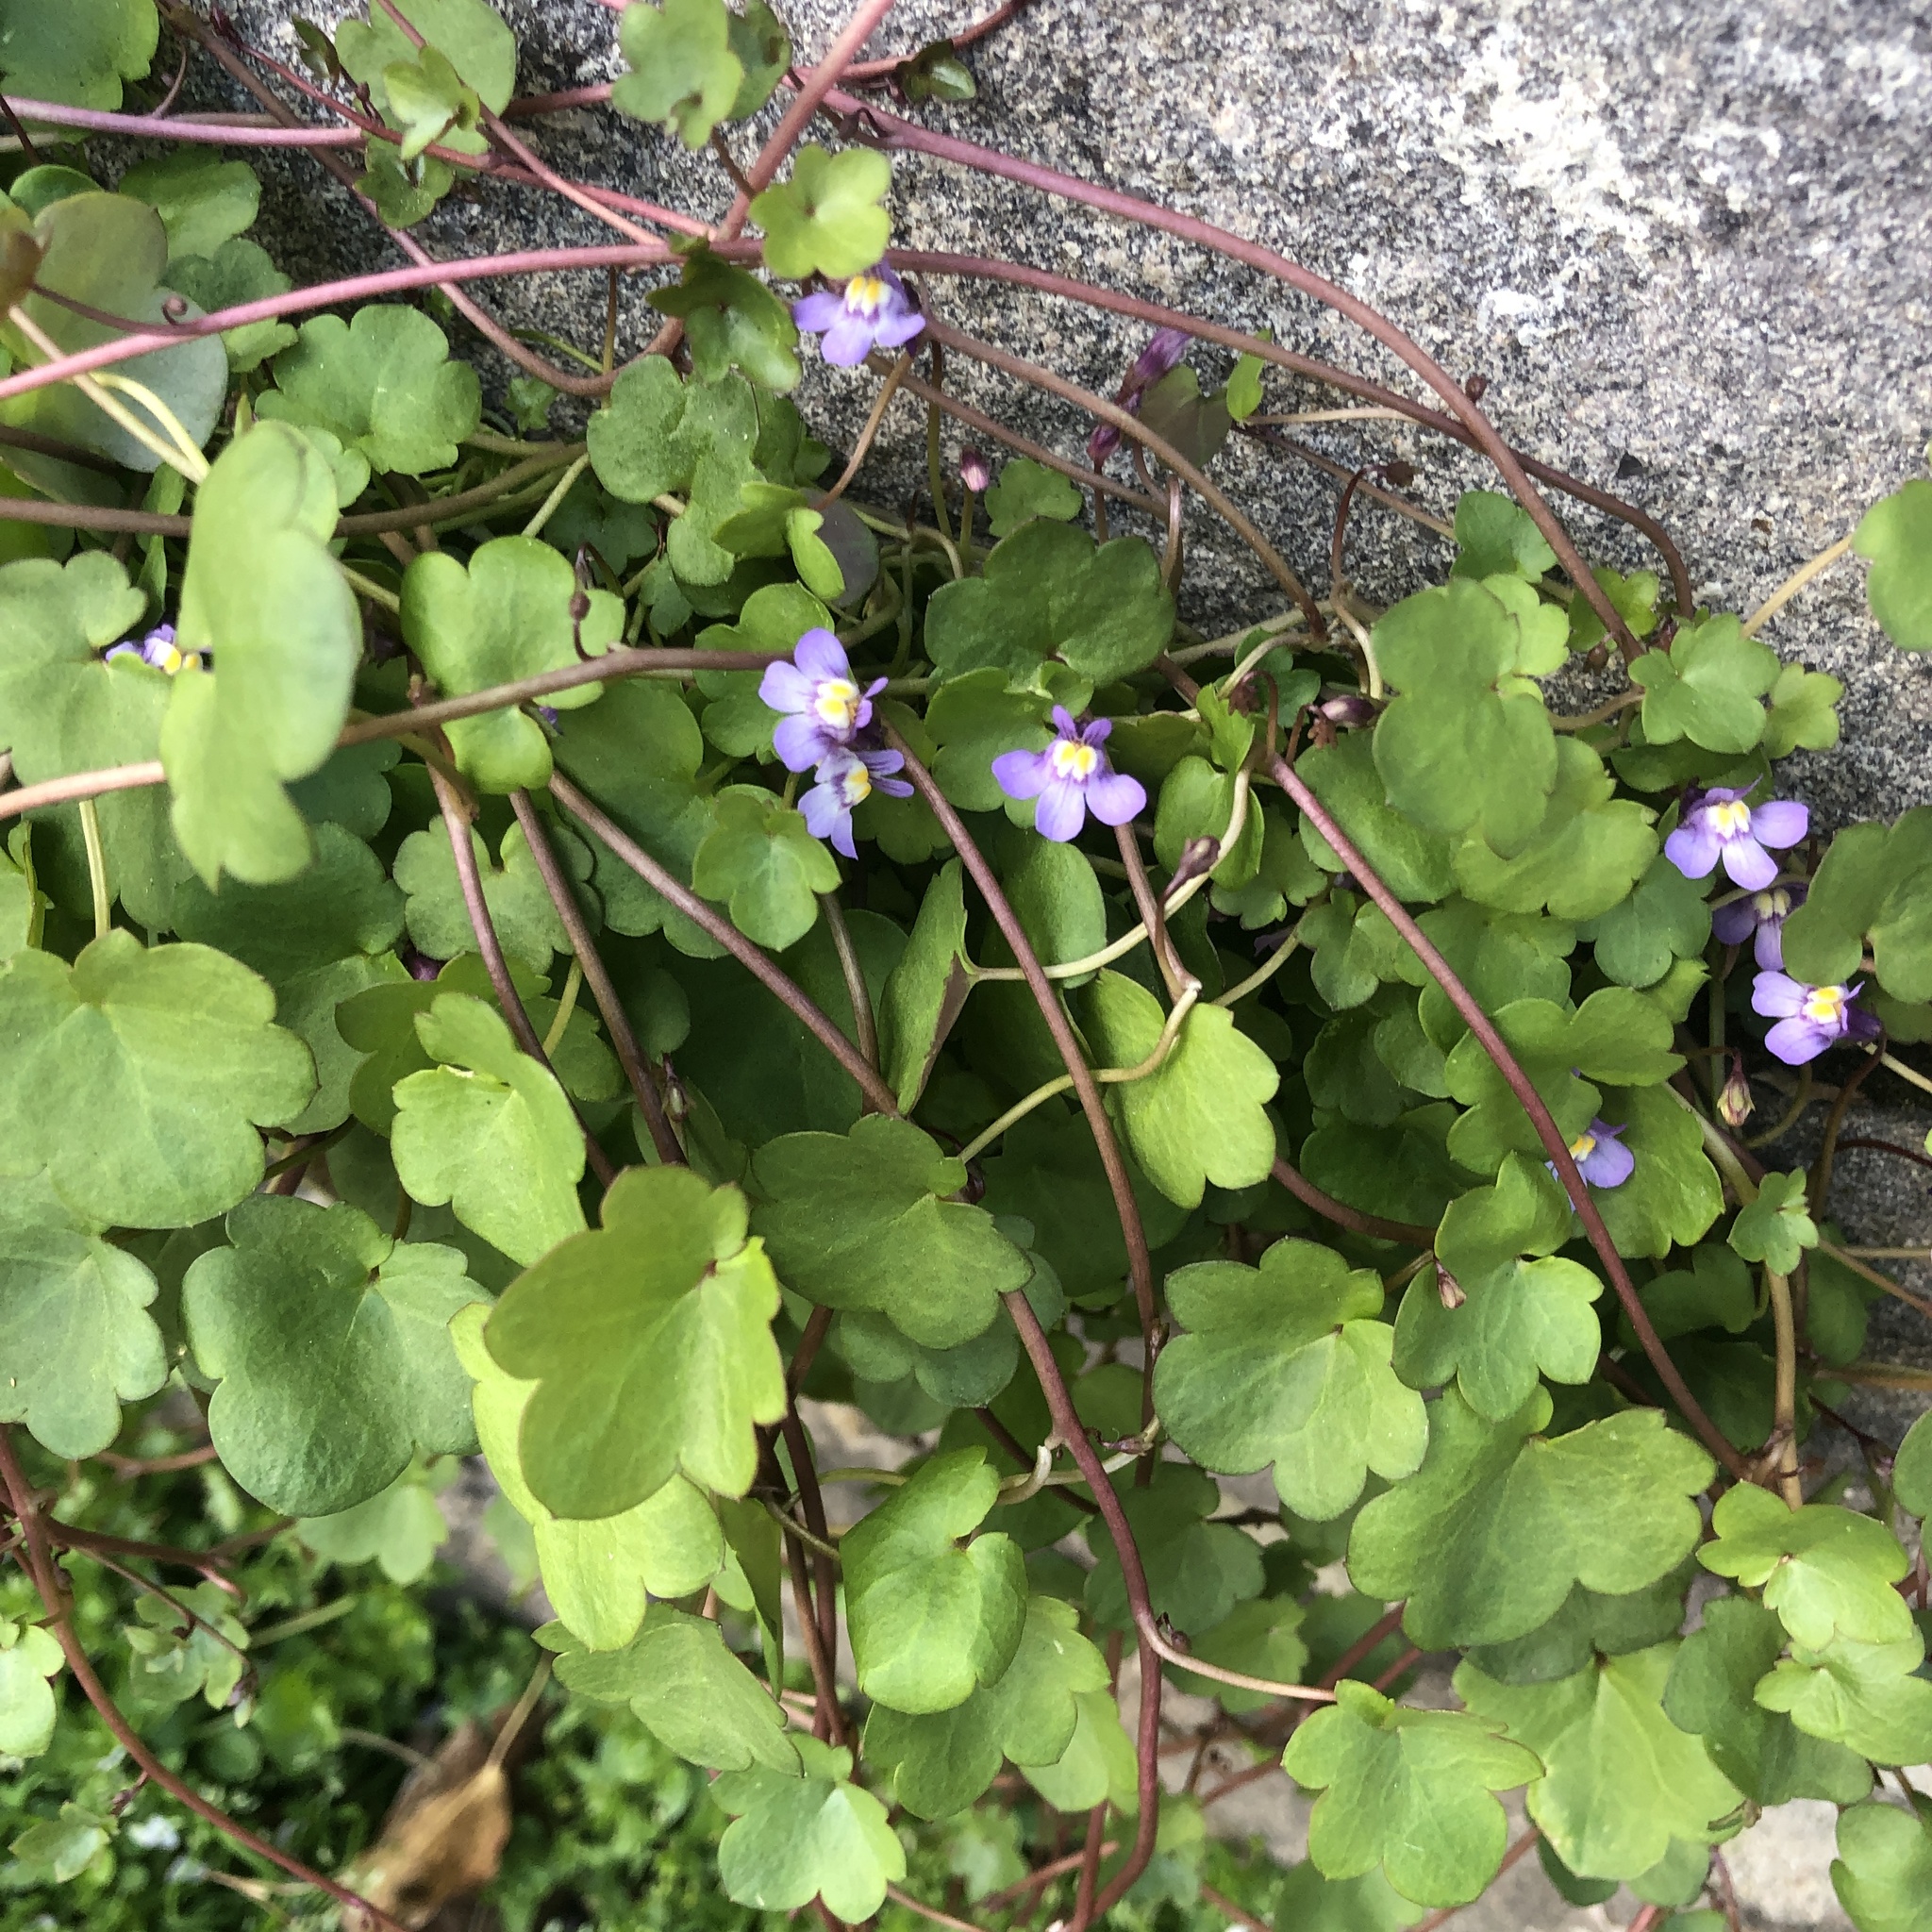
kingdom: Plantae
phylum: Tracheophyta
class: Magnoliopsida
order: Lamiales
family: Plantaginaceae
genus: Cymbalaria
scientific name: Cymbalaria muralis
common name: Ivy-leaved toadflax
